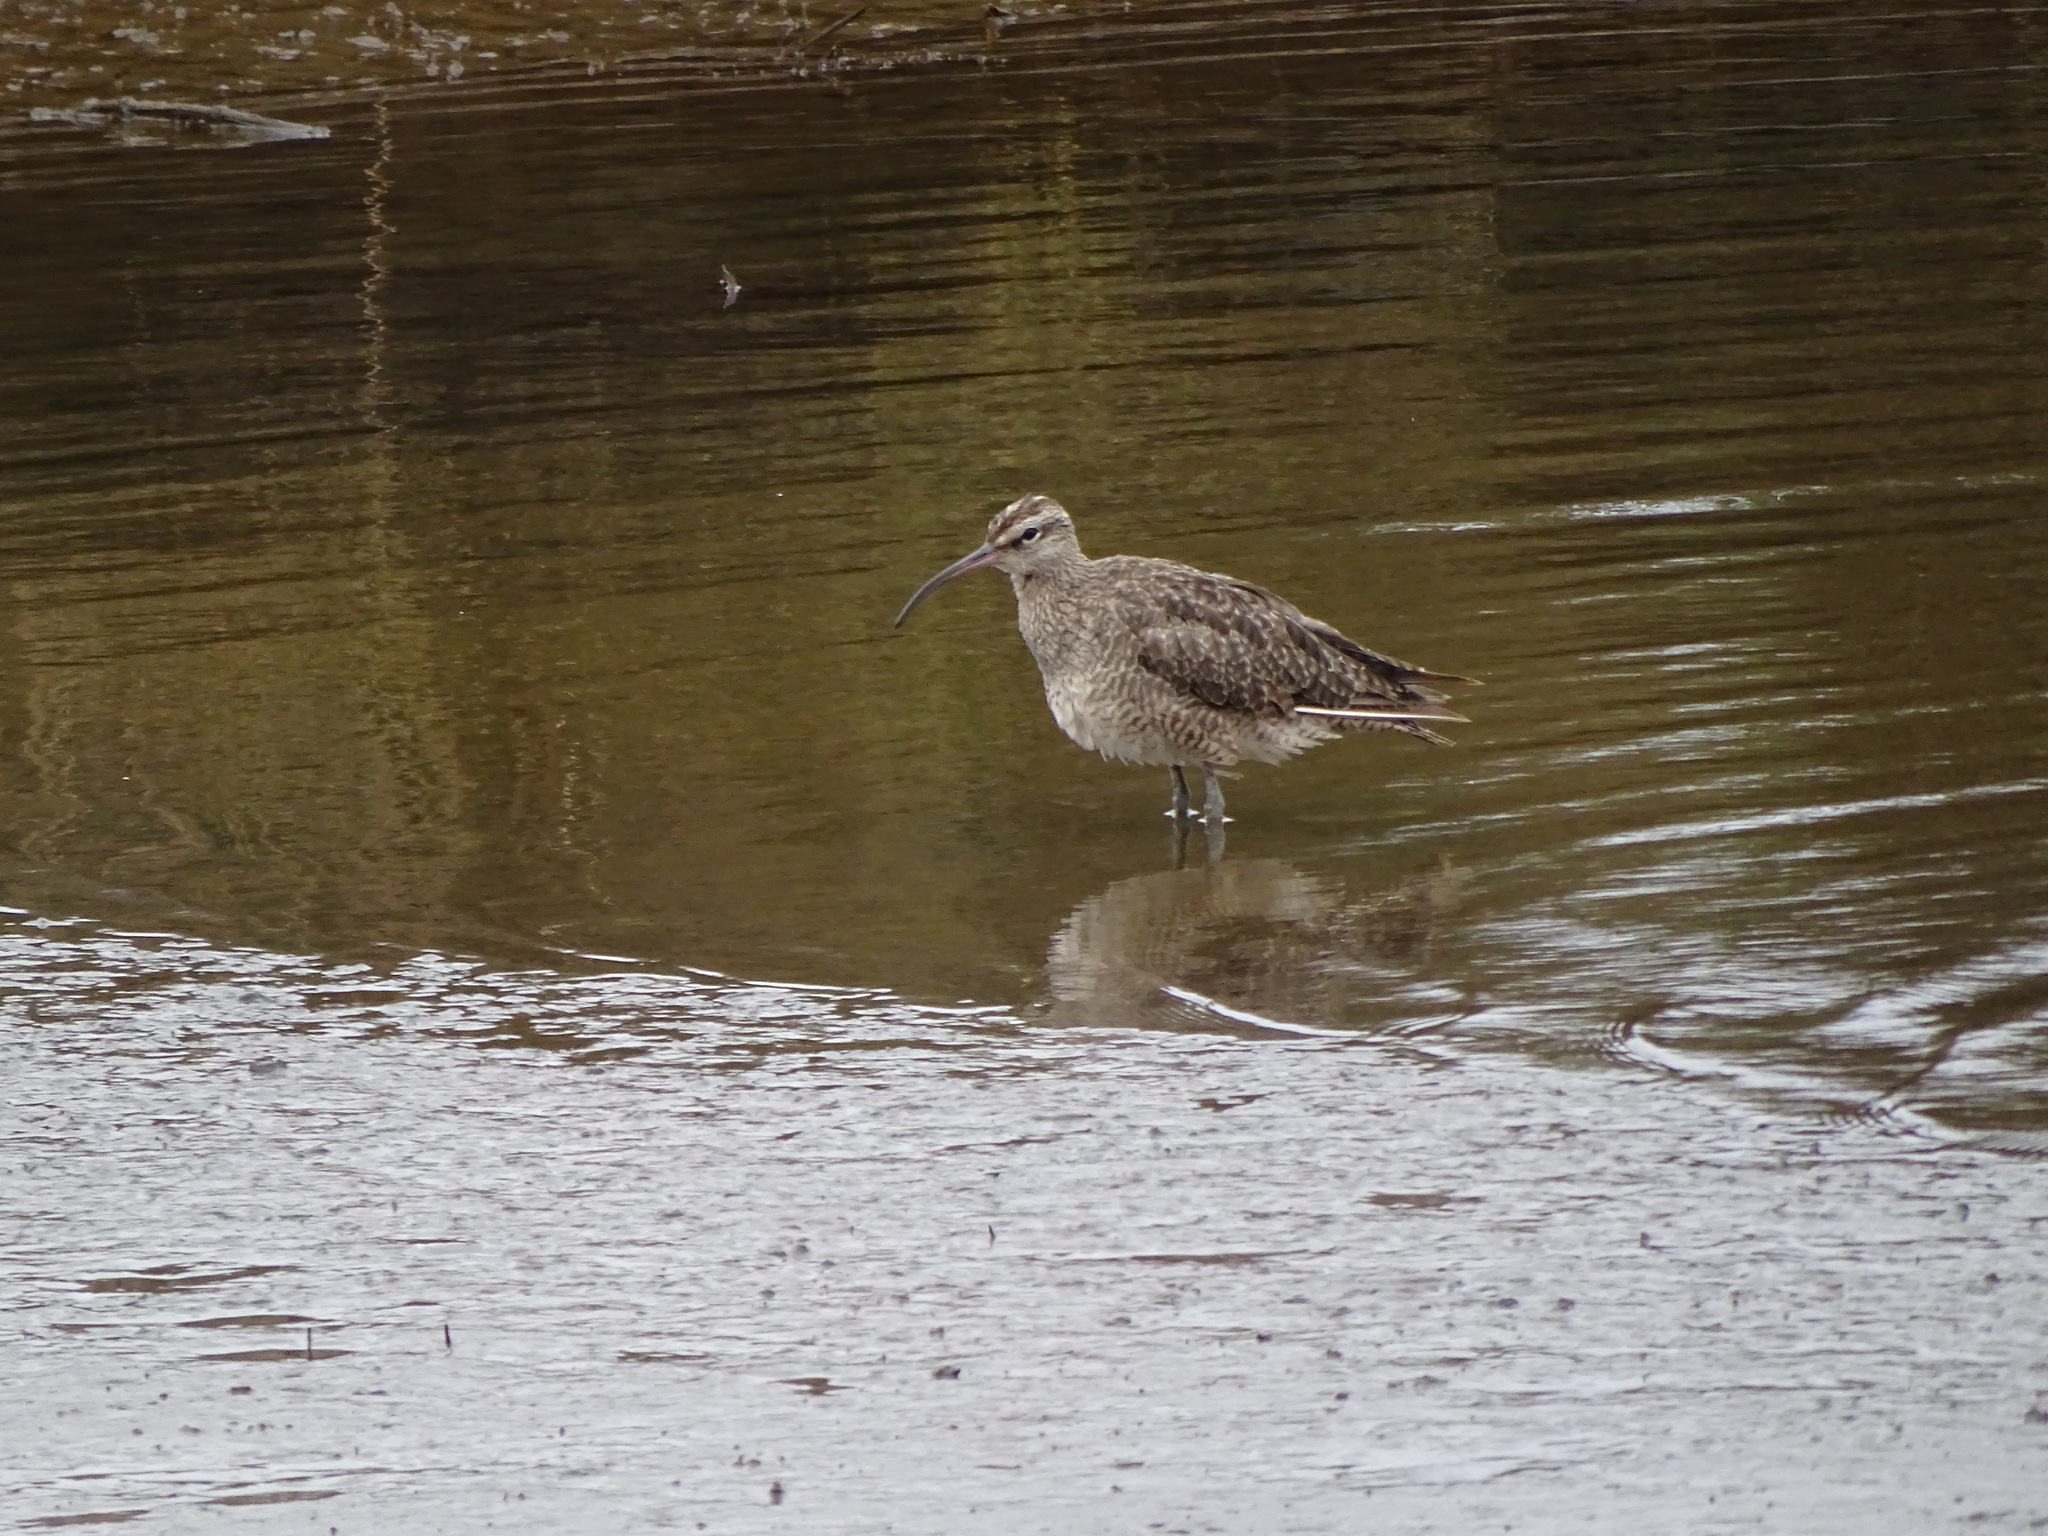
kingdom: Animalia
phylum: Chordata
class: Aves
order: Charadriiformes
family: Scolopacidae
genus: Numenius
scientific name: Numenius phaeopus
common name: Whimbrel
